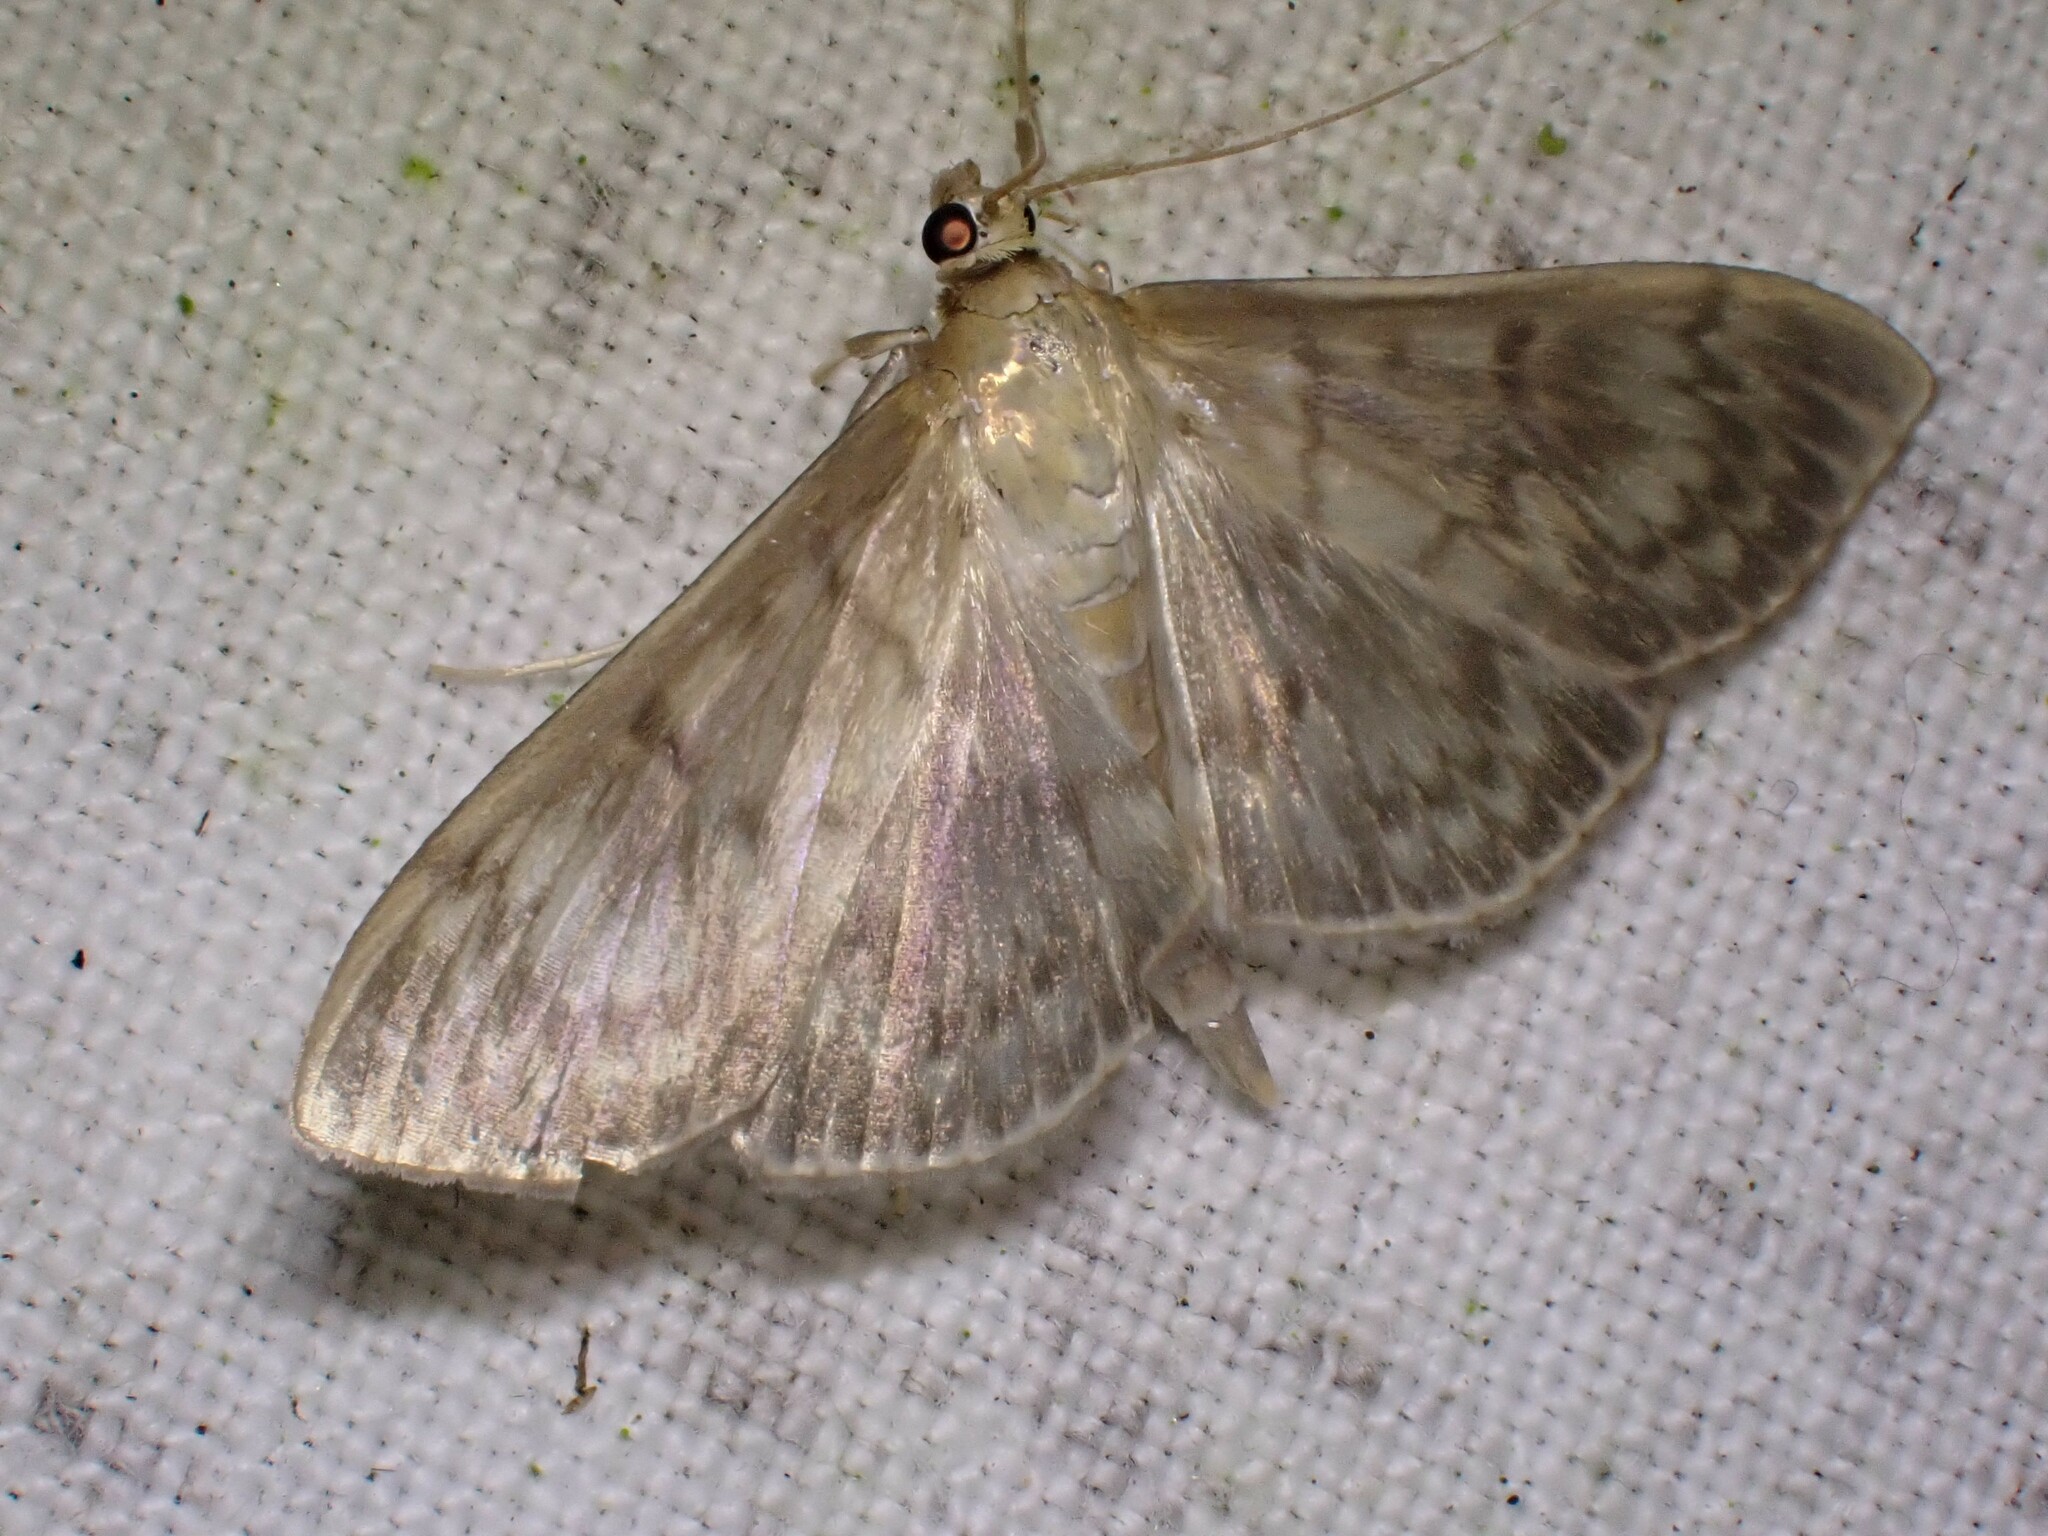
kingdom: Animalia
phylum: Arthropoda
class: Insecta
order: Lepidoptera
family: Crambidae
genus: Patania
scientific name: Patania ruralis
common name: Mother of pearl
